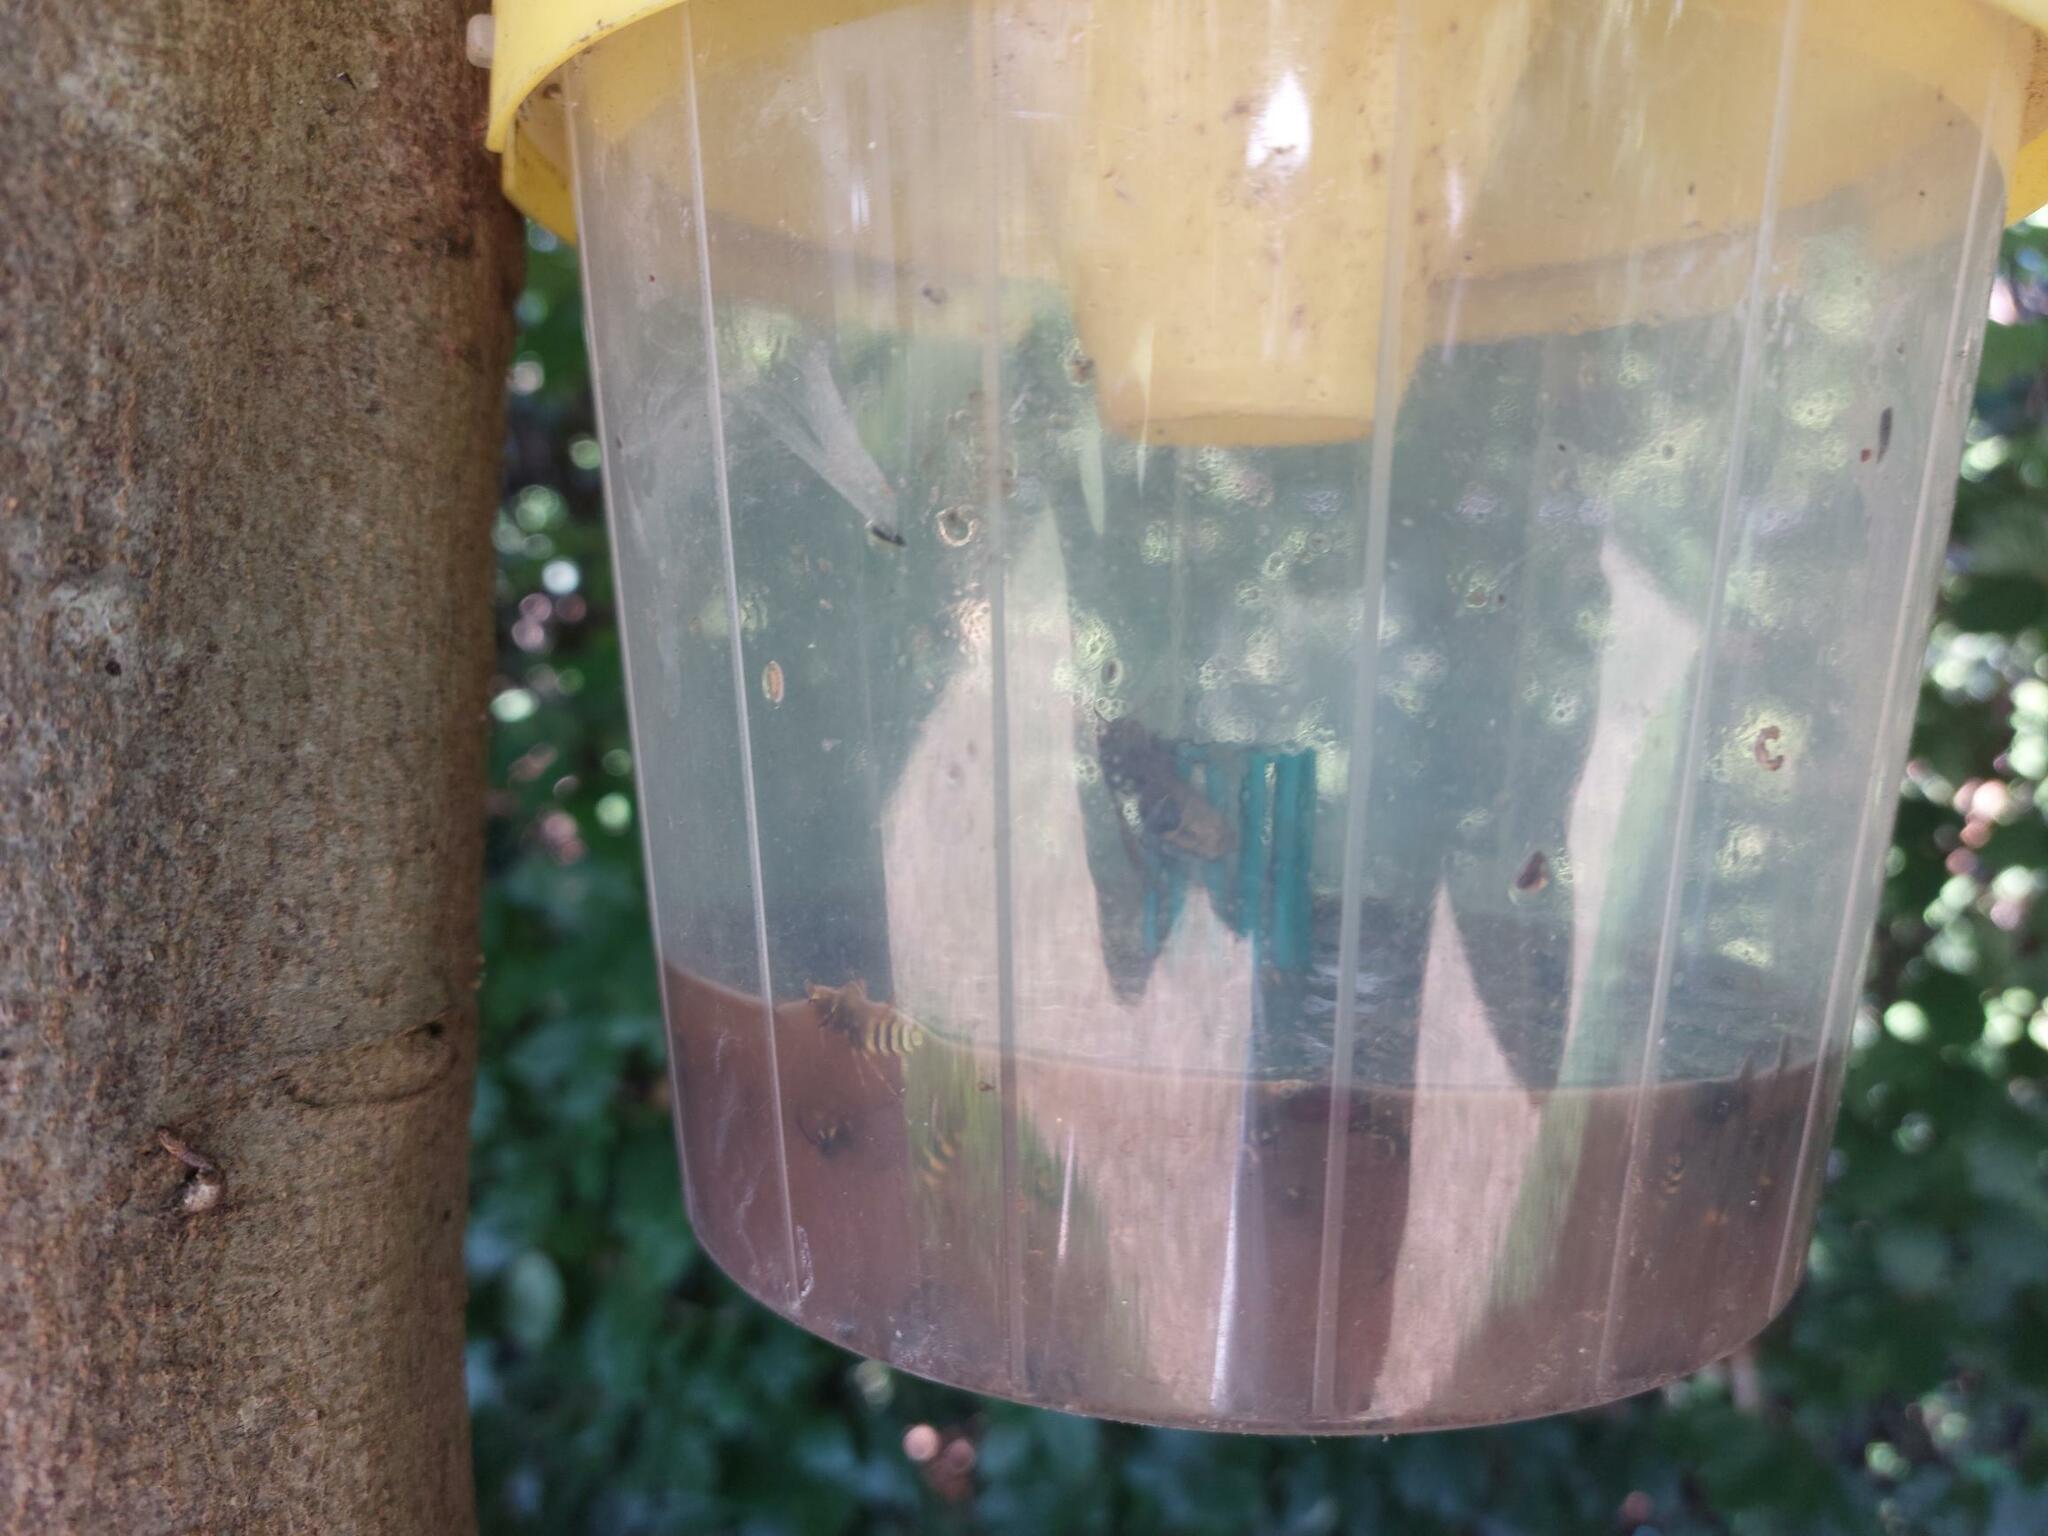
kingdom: Animalia
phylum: Arthropoda
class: Insecta
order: Hymenoptera
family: Vespidae
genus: Vespa
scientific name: Vespa crabro
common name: Hornet
